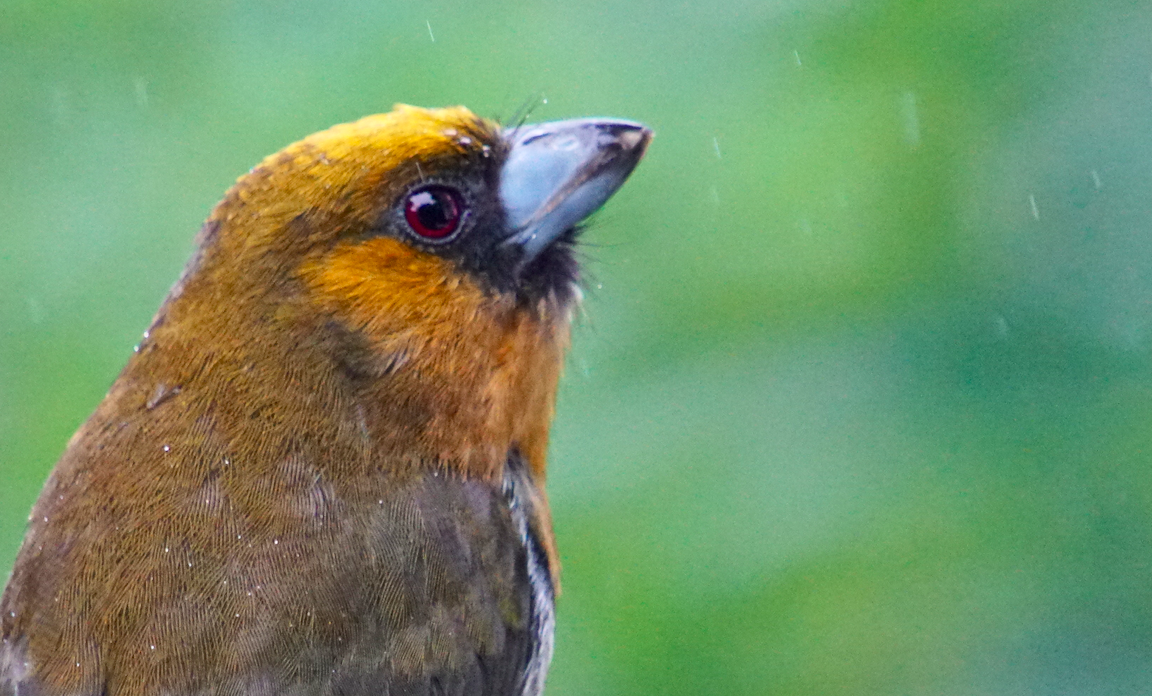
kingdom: Animalia
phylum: Chordata
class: Aves
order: Piciformes
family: Semnornithidae
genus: Semnornis
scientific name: Semnornis frantzii
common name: Prong-billed barbet
